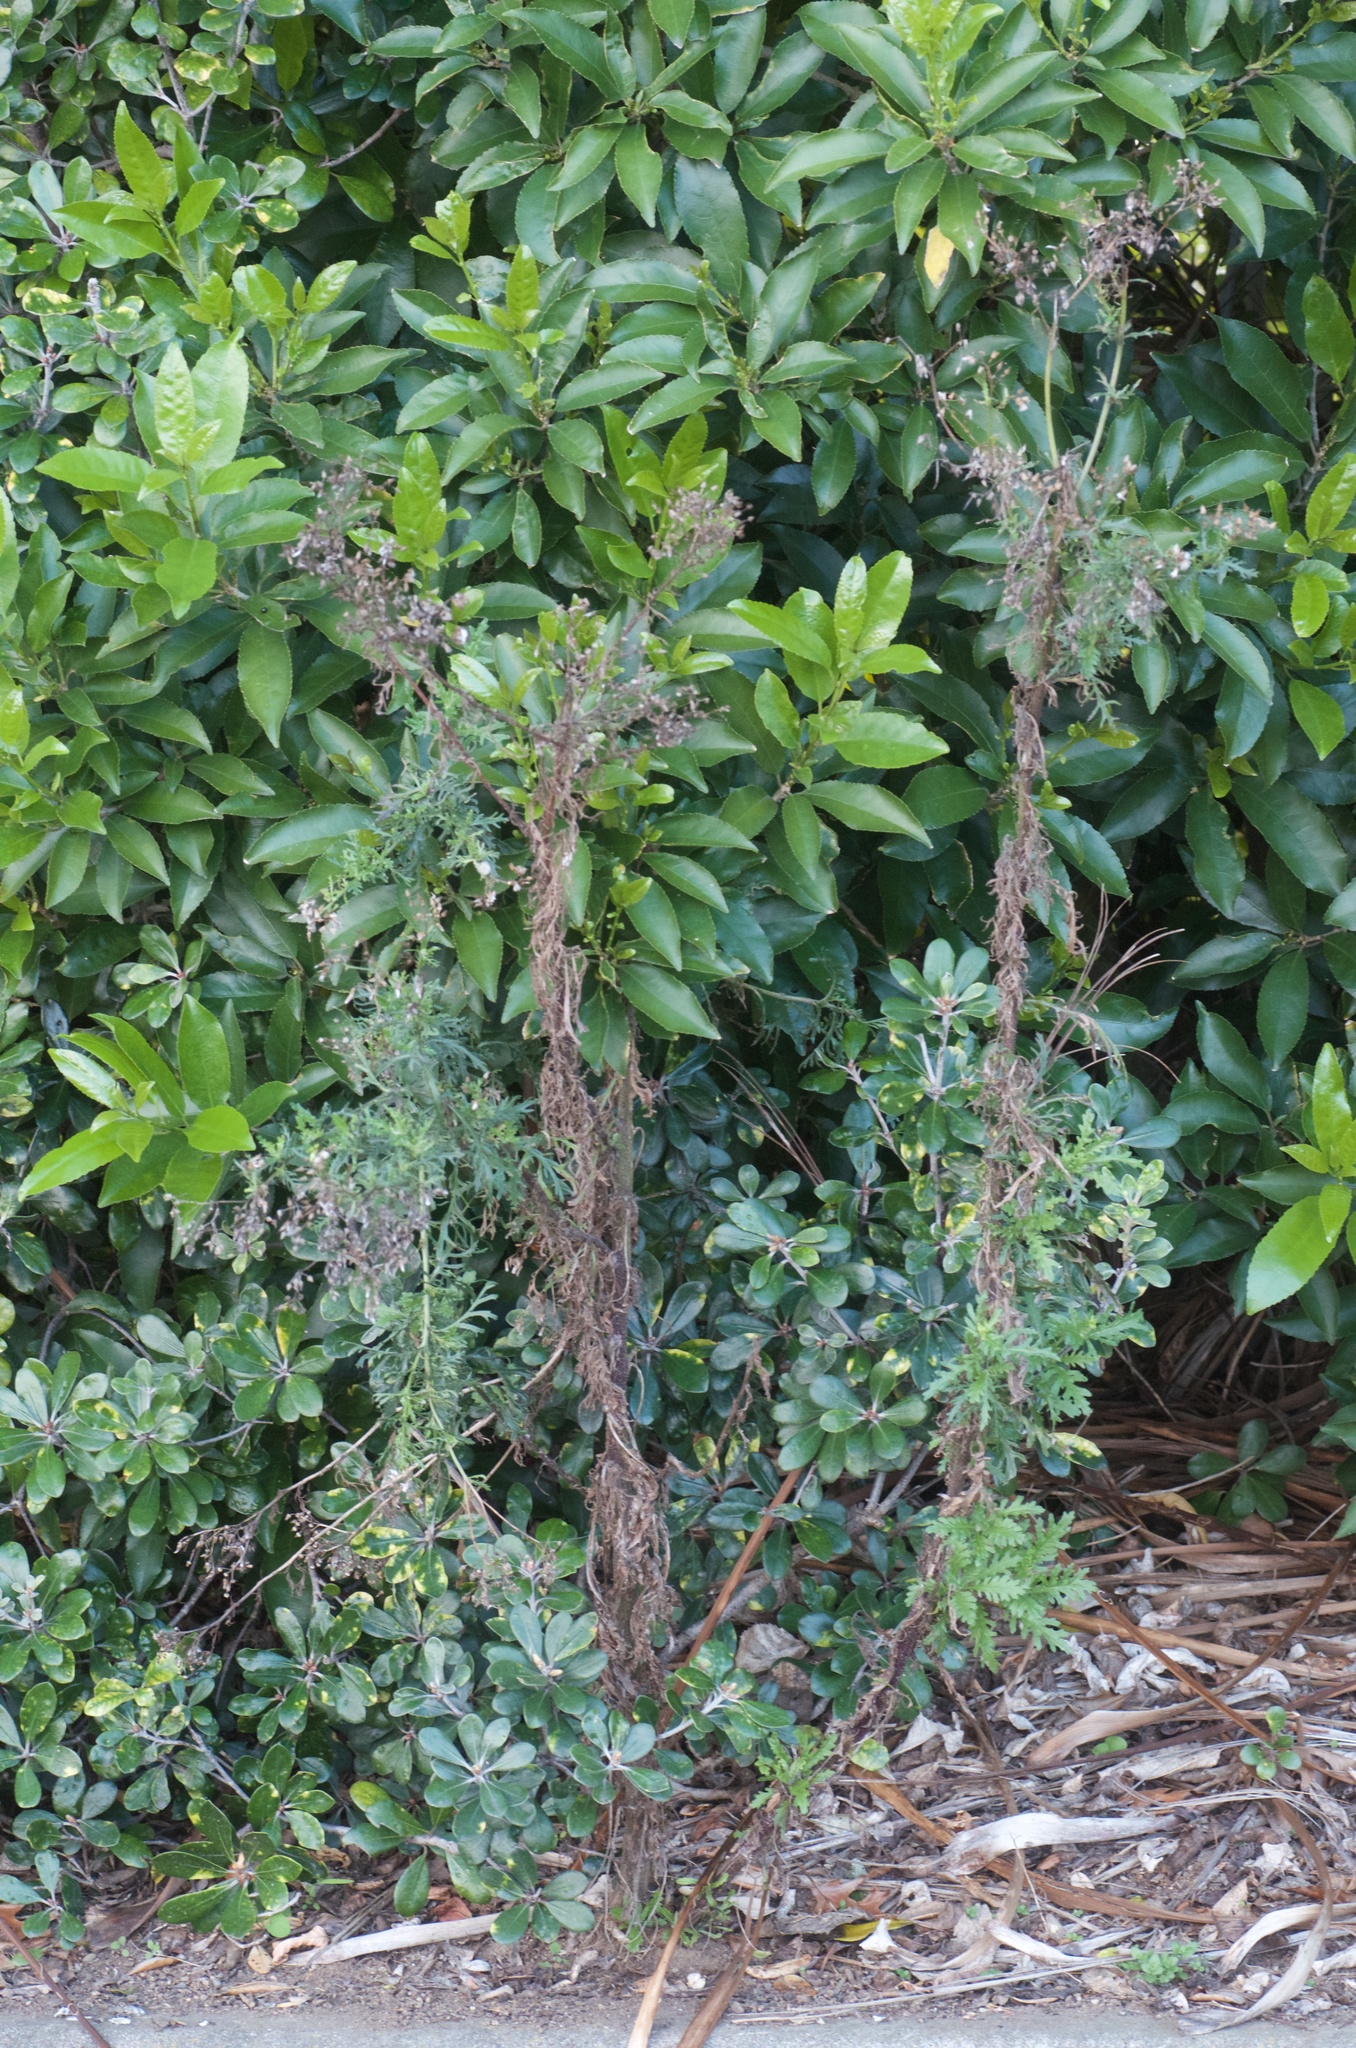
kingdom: Plantae
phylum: Tracheophyta
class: Magnoliopsida
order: Asterales
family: Asteraceae
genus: Senecio
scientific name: Senecio esleri
